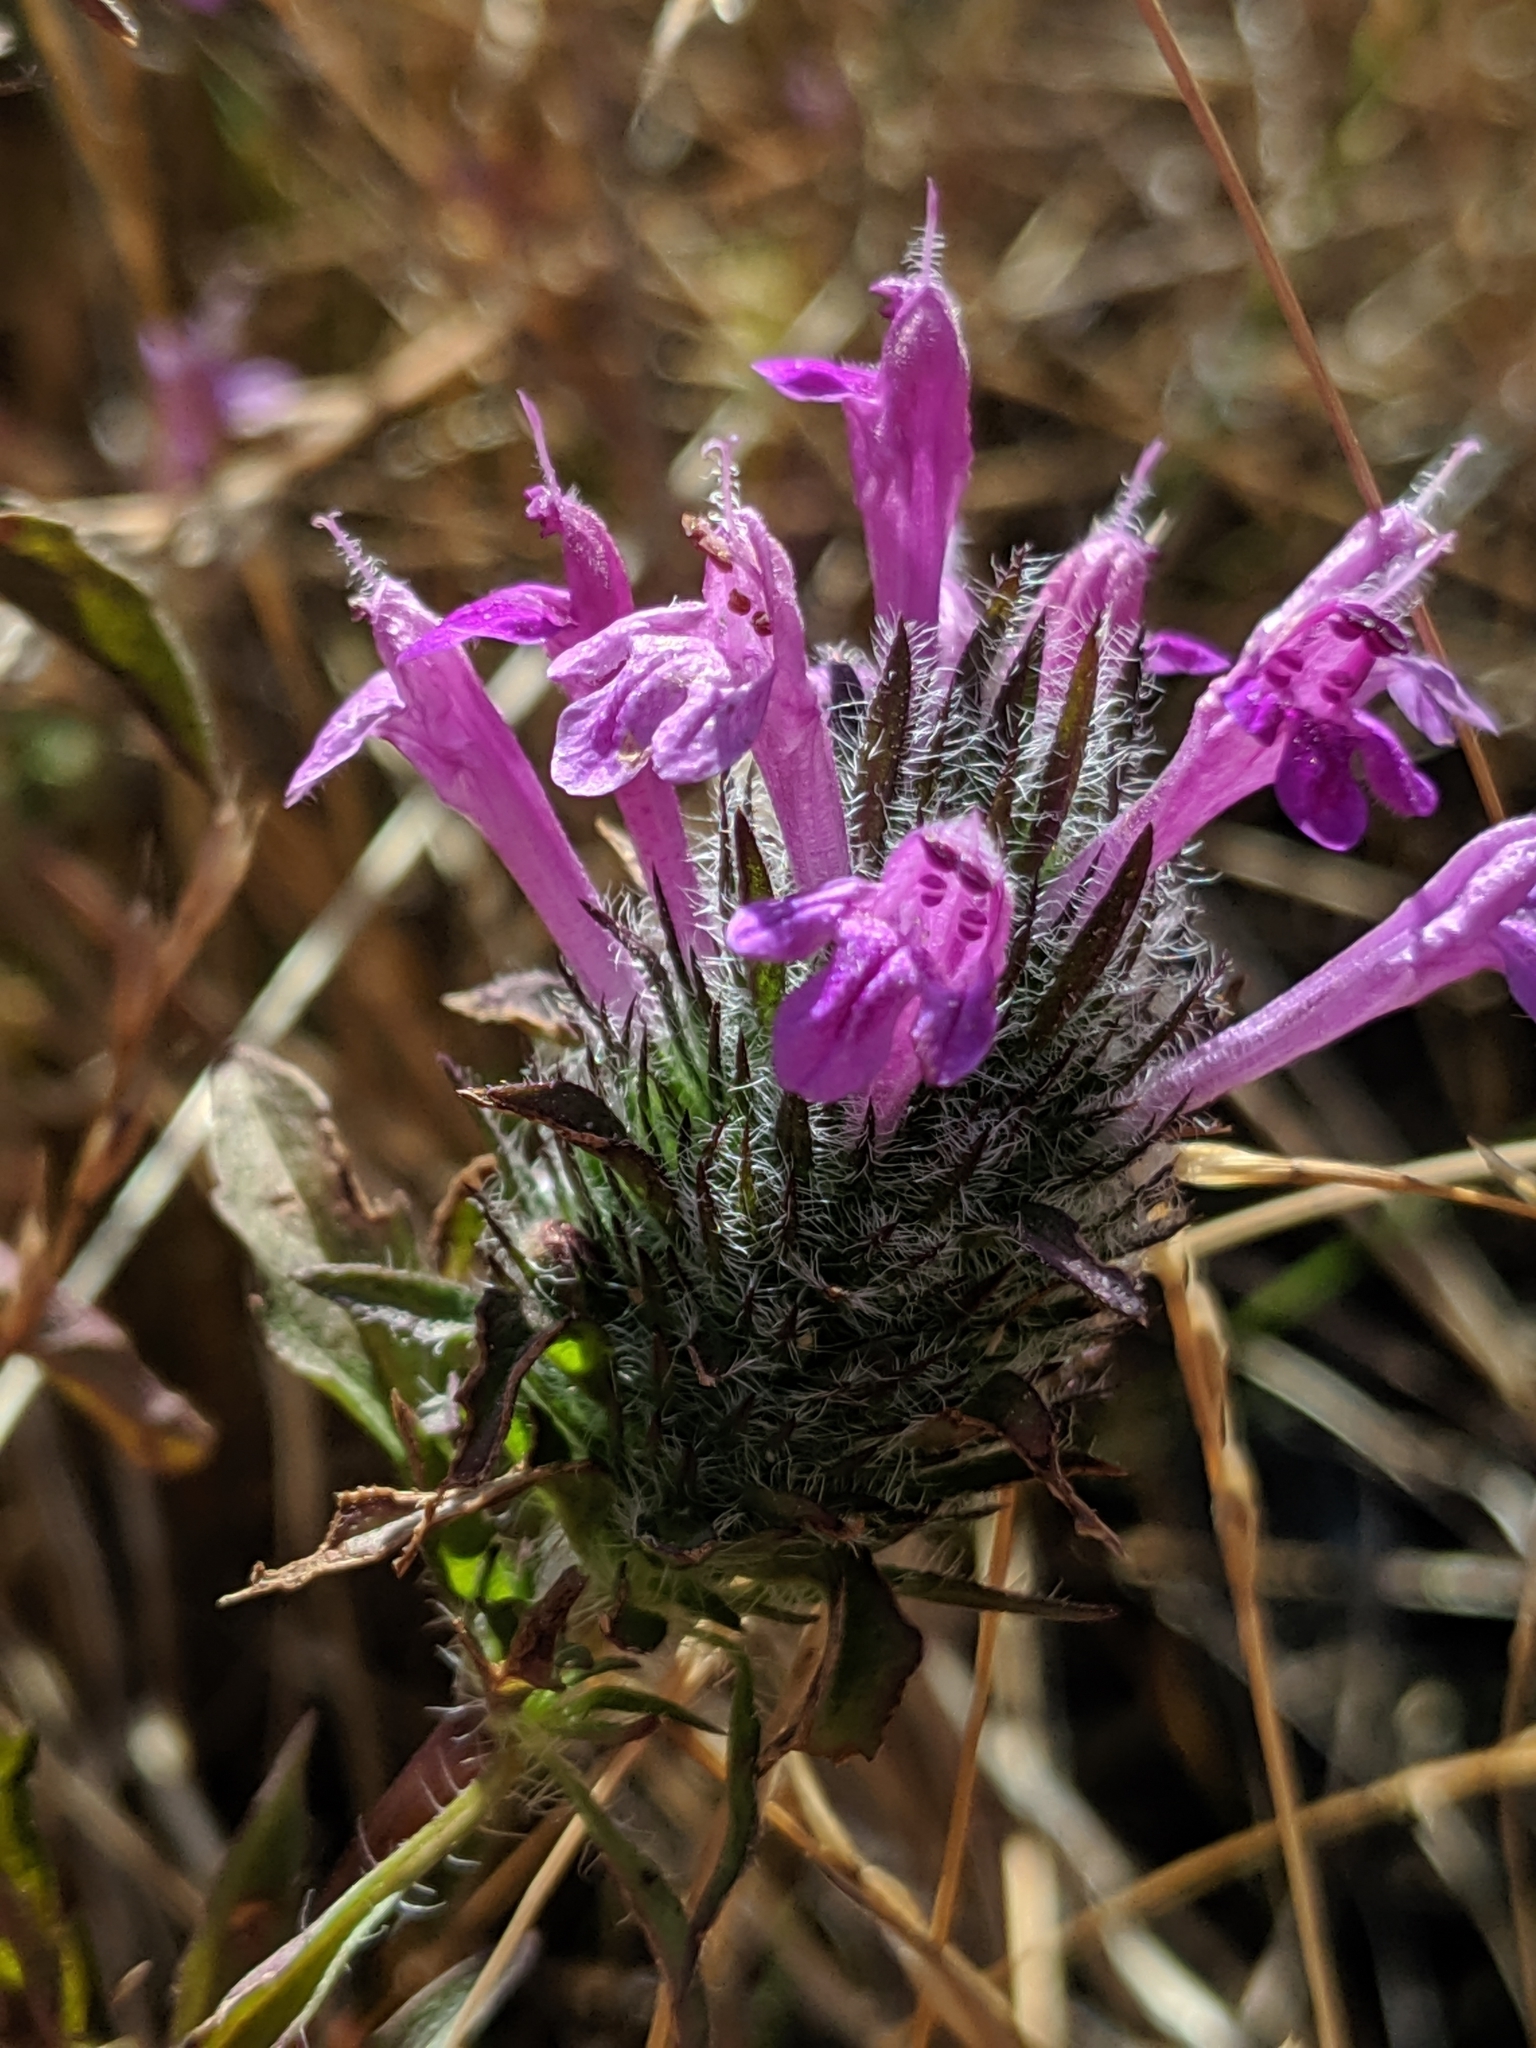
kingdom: Plantae
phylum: Tracheophyta
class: Magnoliopsida
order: Lamiales
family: Lamiaceae
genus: Pogogyne
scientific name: Pogogyne douglasii
